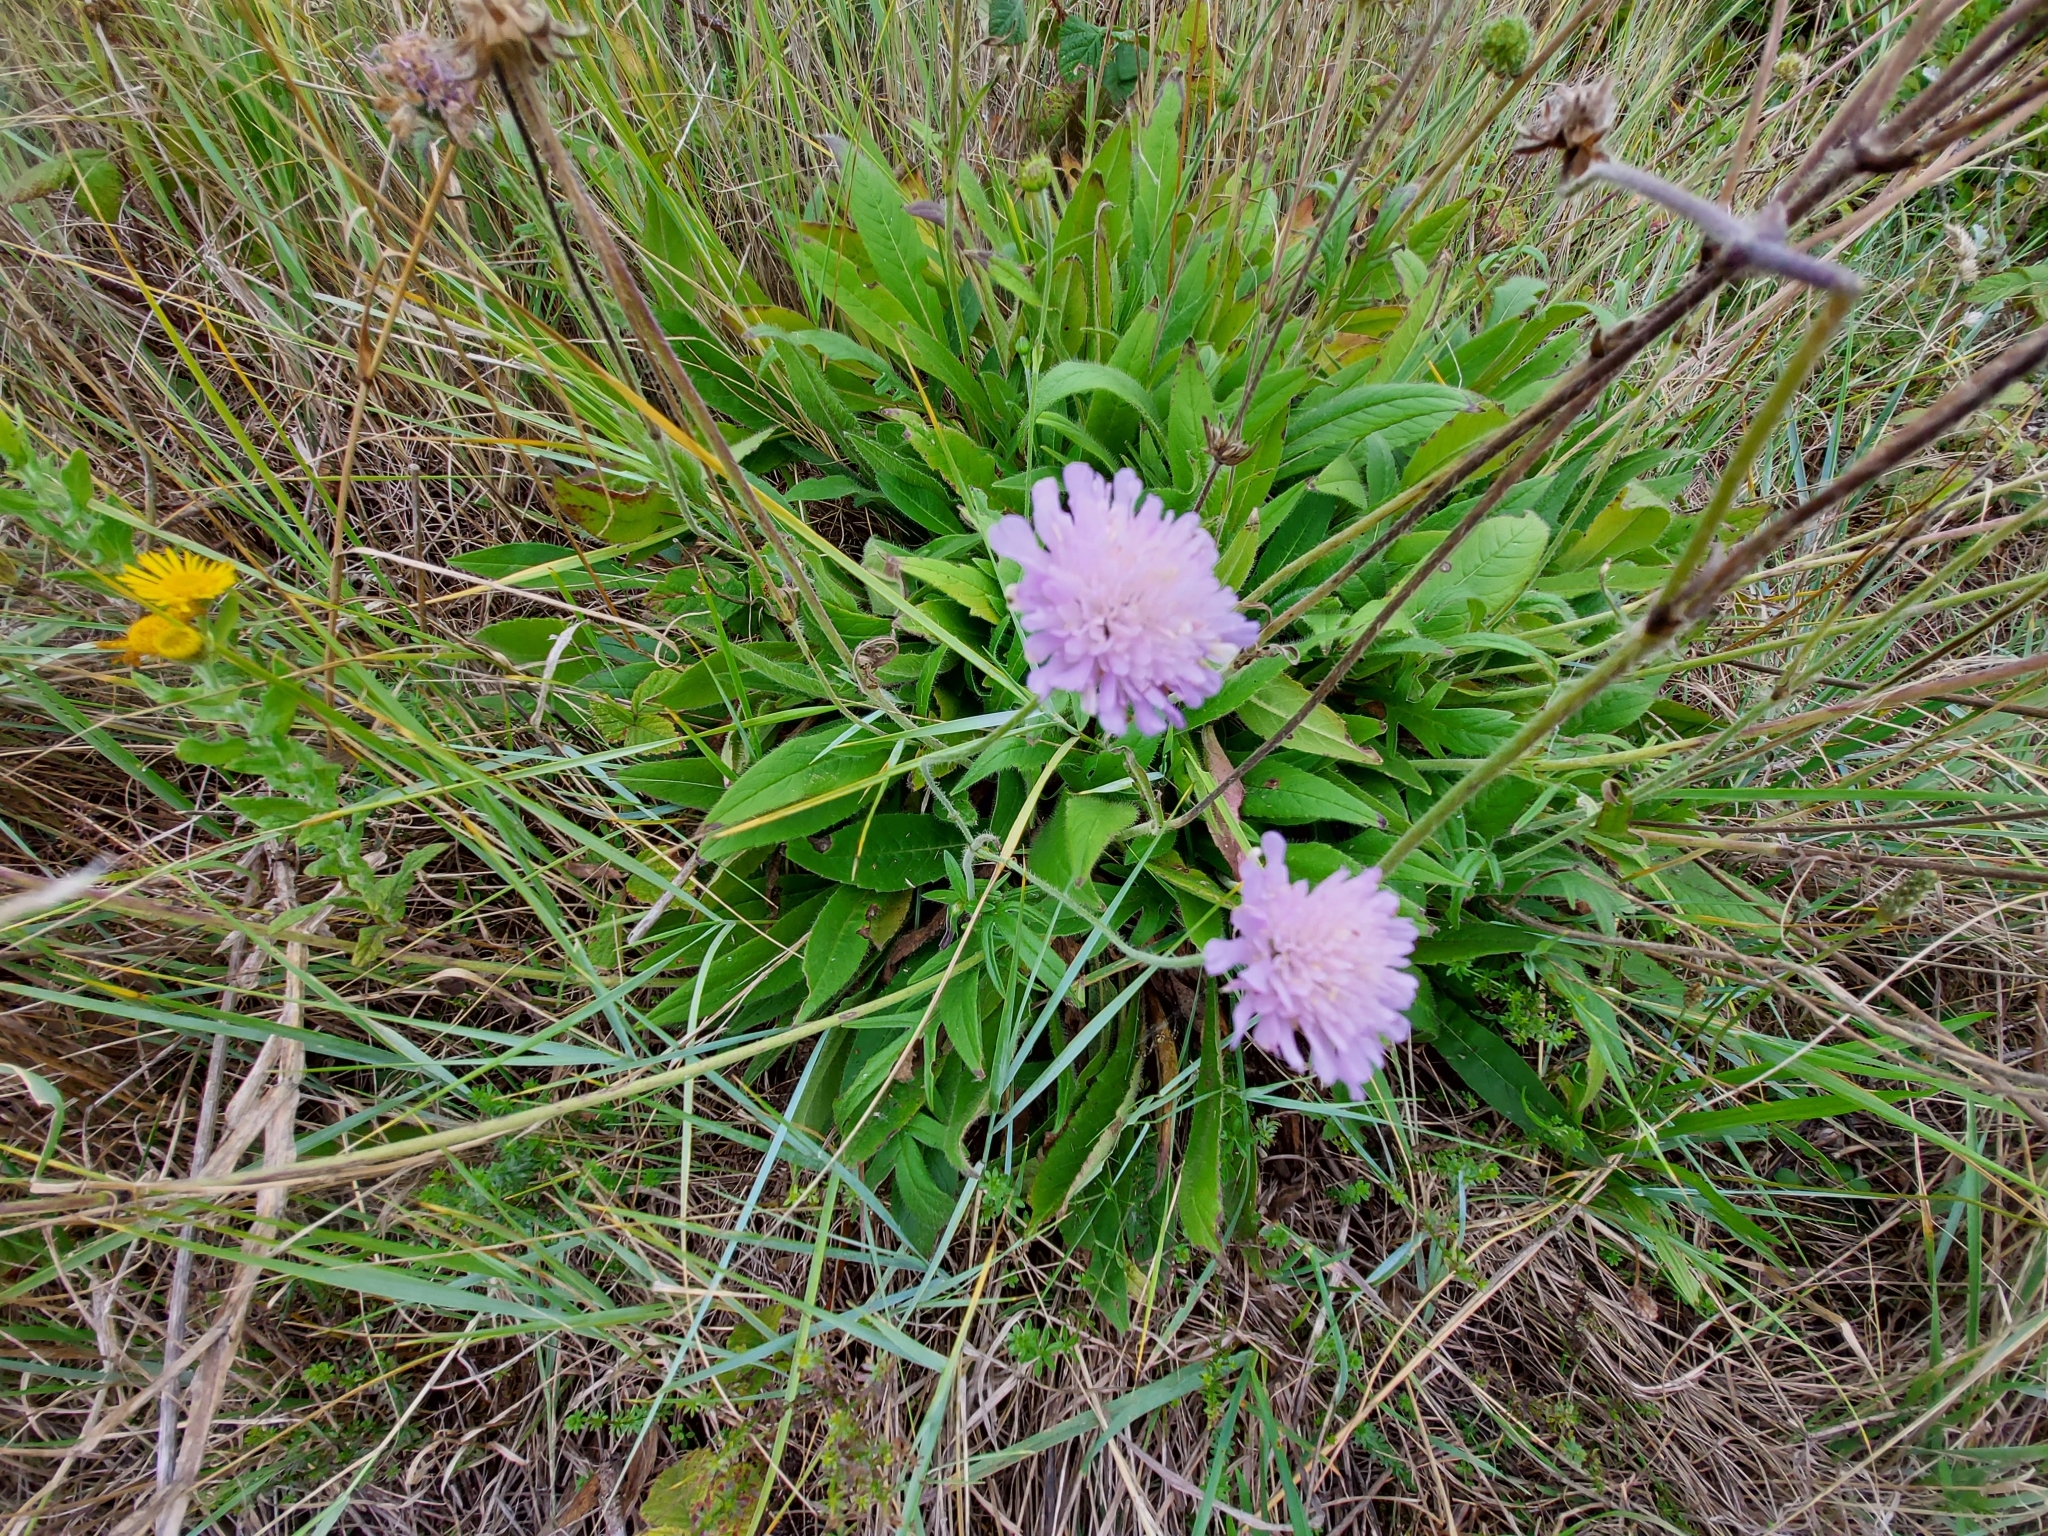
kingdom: Plantae
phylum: Tracheophyta
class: Magnoliopsida
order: Dipsacales
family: Caprifoliaceae
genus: Knautia
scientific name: Knautia arvensis
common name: Field scabiosa
